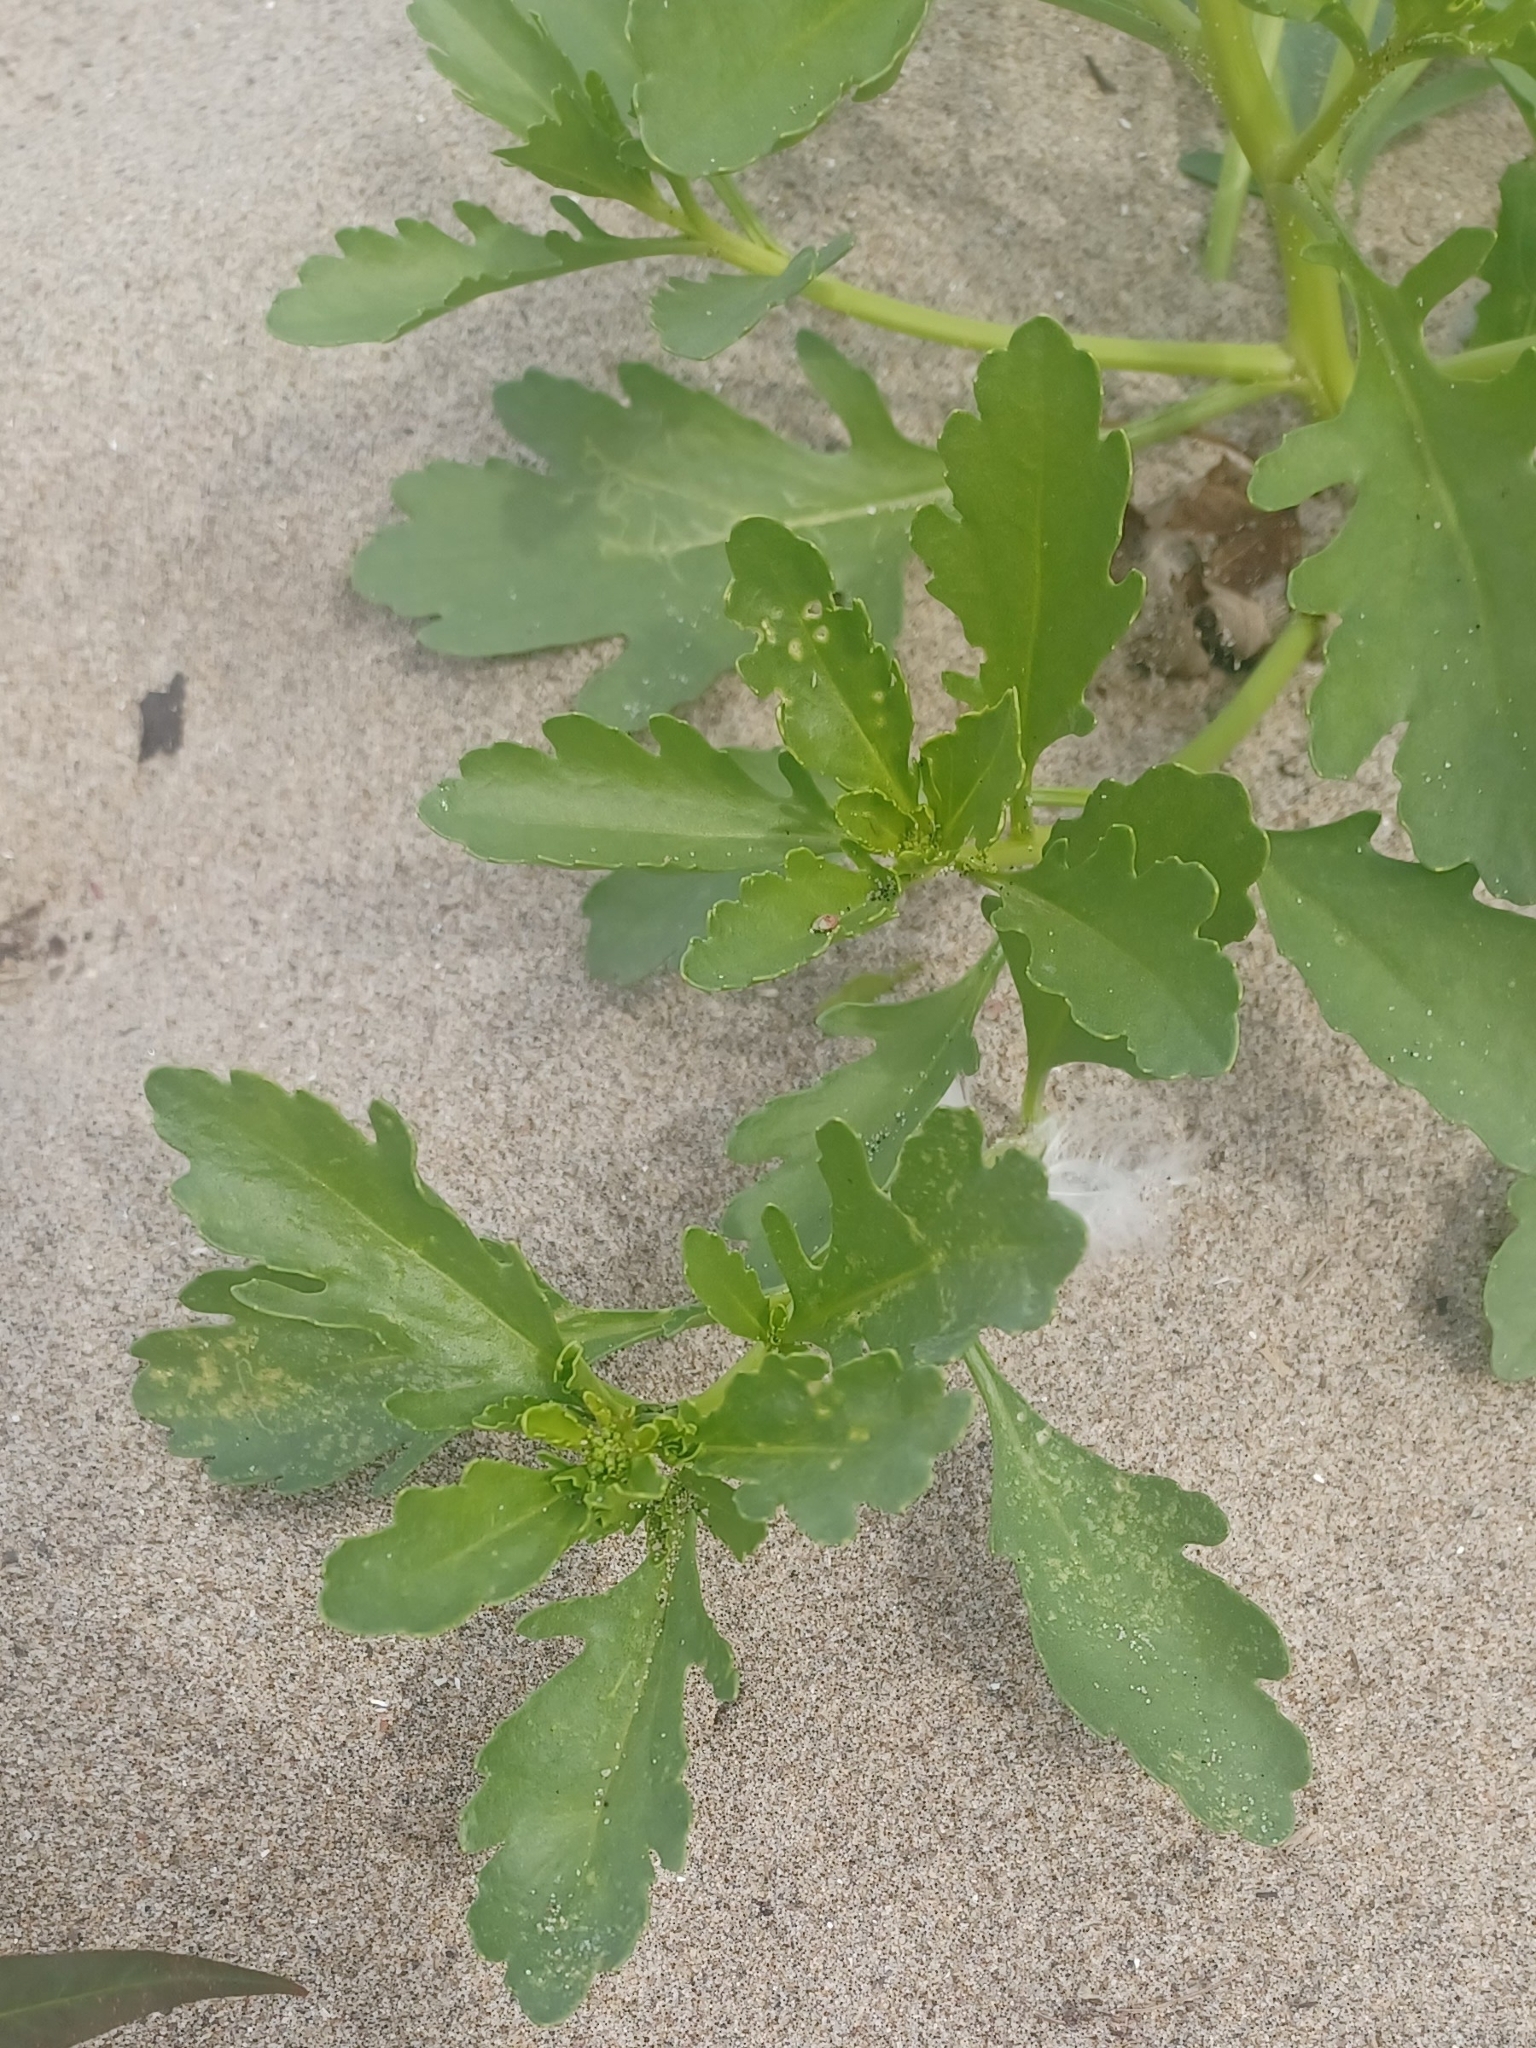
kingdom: Plantae
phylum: Tracheophyta
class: Magnoliopsida
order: Brassicales
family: Brassicaceae
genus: Cakile
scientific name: Cakile edentula
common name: American sea rocket
